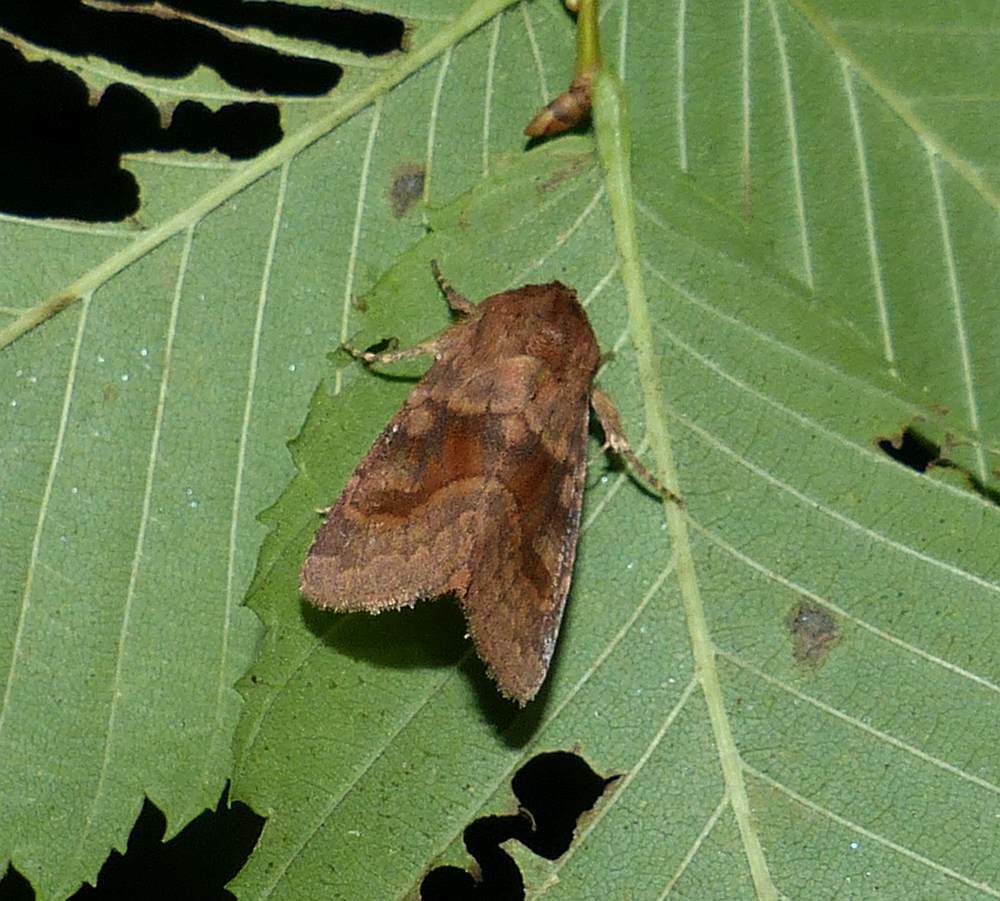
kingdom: Animalia
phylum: Arthropoda
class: Insecta
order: Lepidoptera
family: Noctuidae
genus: Nephelodes
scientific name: Nephelodes minians
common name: Bronzed cutworm
